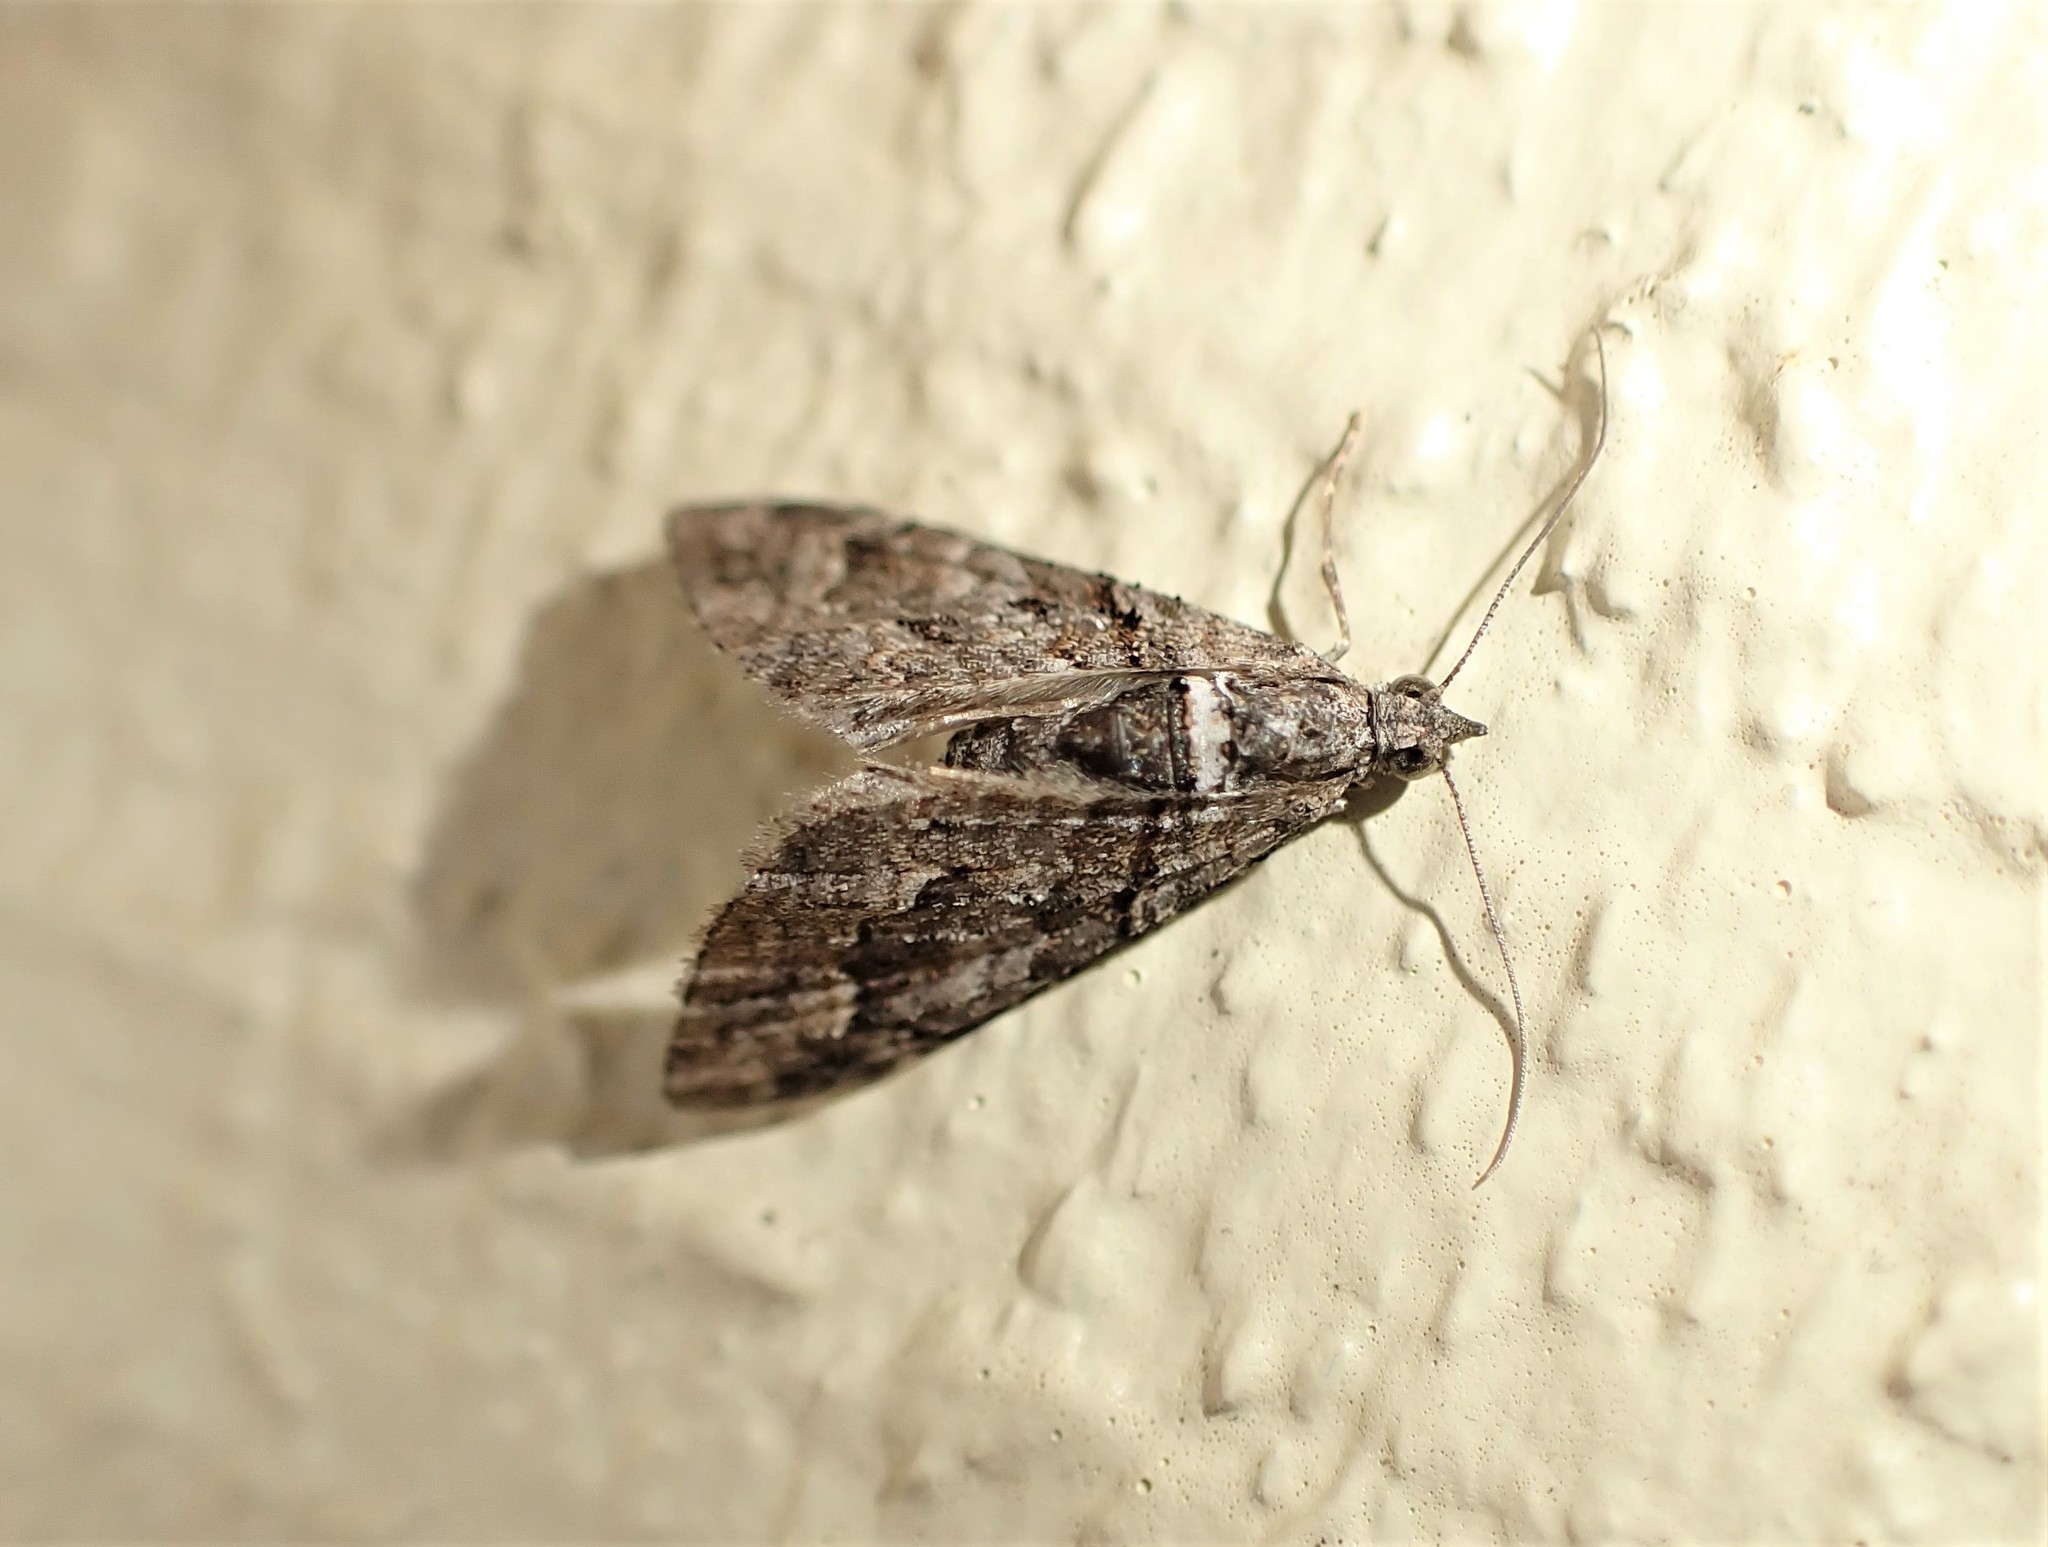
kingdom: Animalia
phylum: Arthropoda
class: Insecta
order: Lepidoptera
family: Geometridae
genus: Phrissogonus
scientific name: Phrissogonus laticostata
